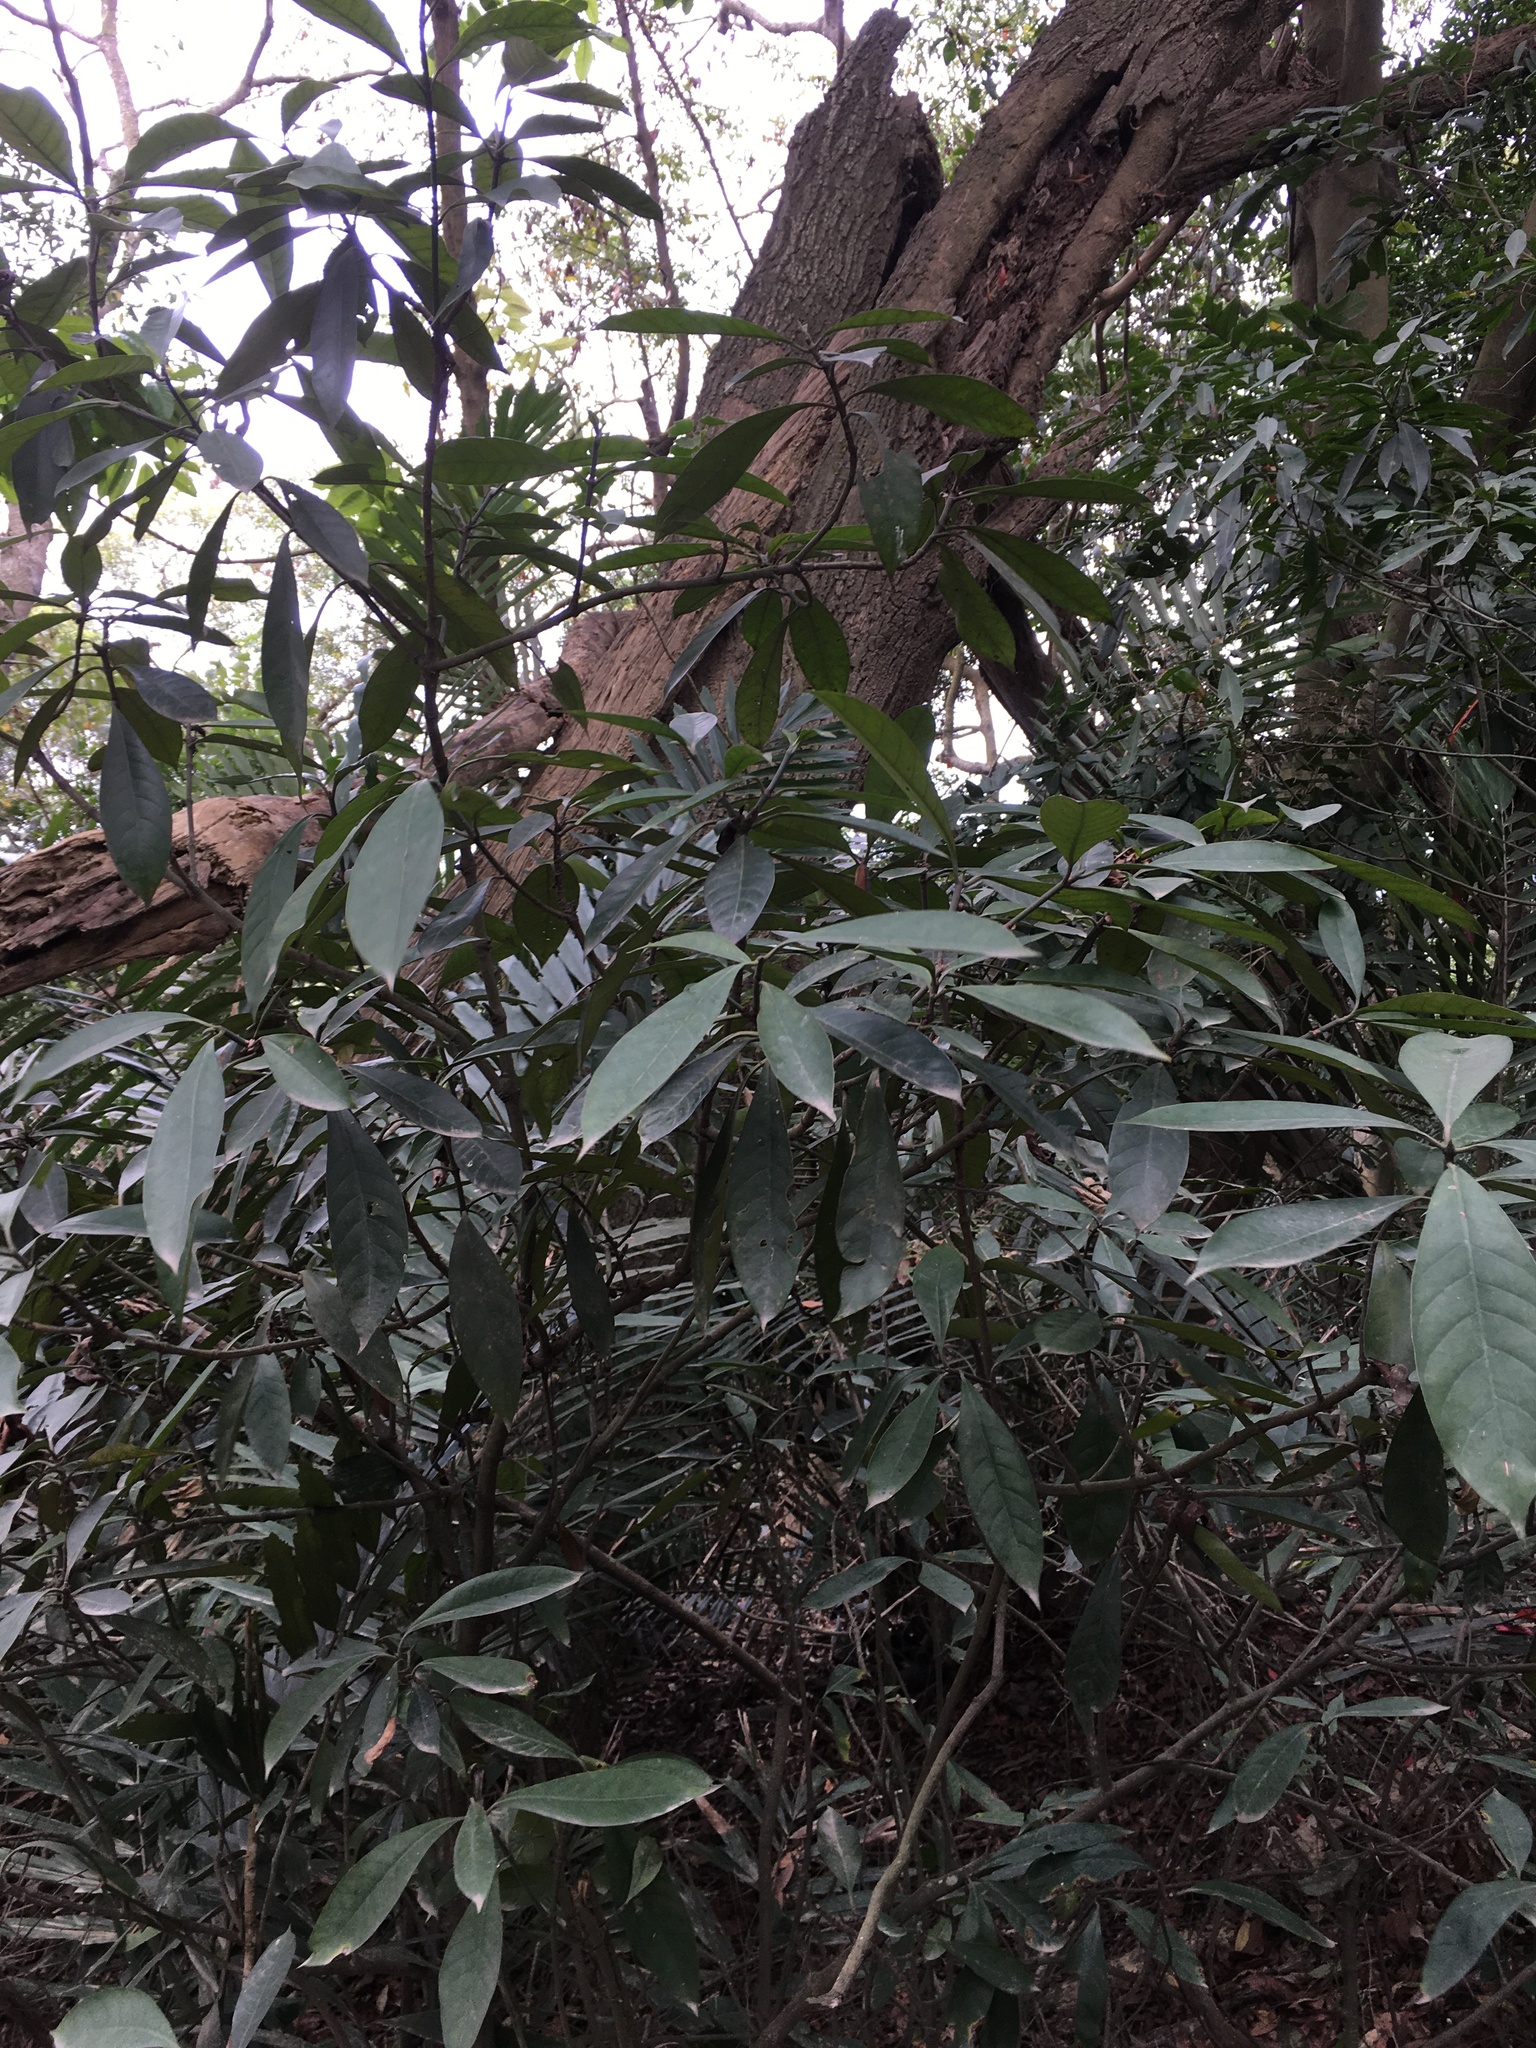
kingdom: Plantae
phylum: Tracheophyta
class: Magnoliopsida
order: Gentianales
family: Rubiaceae
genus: Psychotria
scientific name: Psychotria asiatica
